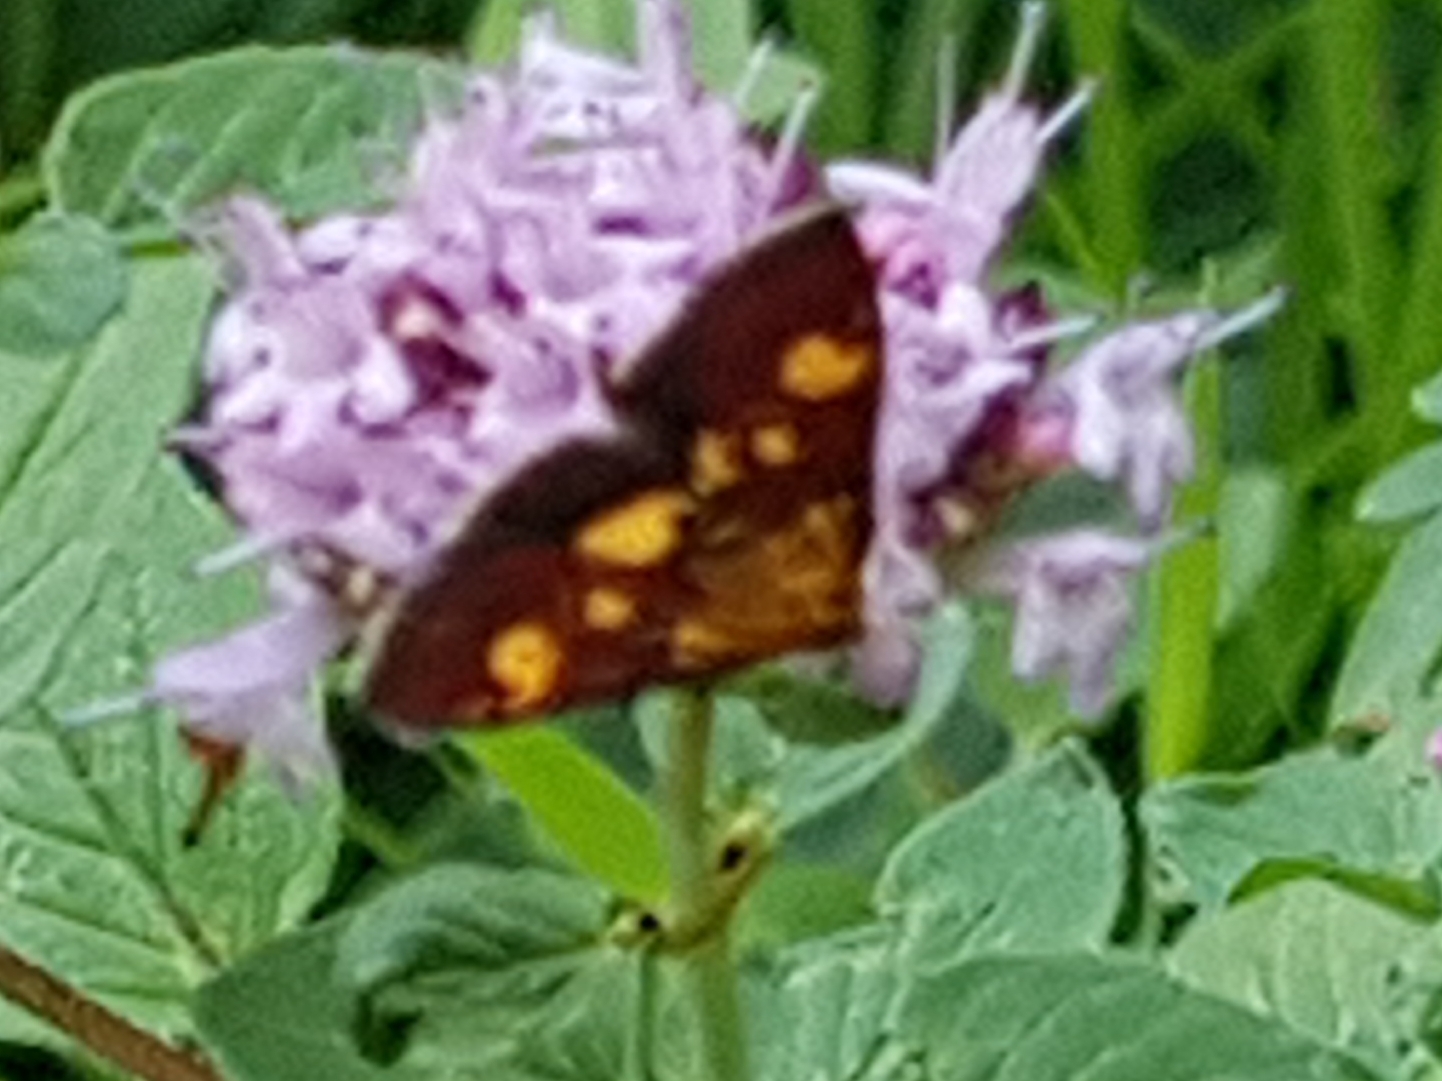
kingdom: Animalia
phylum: Arthropoda
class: Insecta
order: Lepidoptera
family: Crambidae
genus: Pyrausta
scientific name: Pyrausta aurata
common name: Small purple & gold
